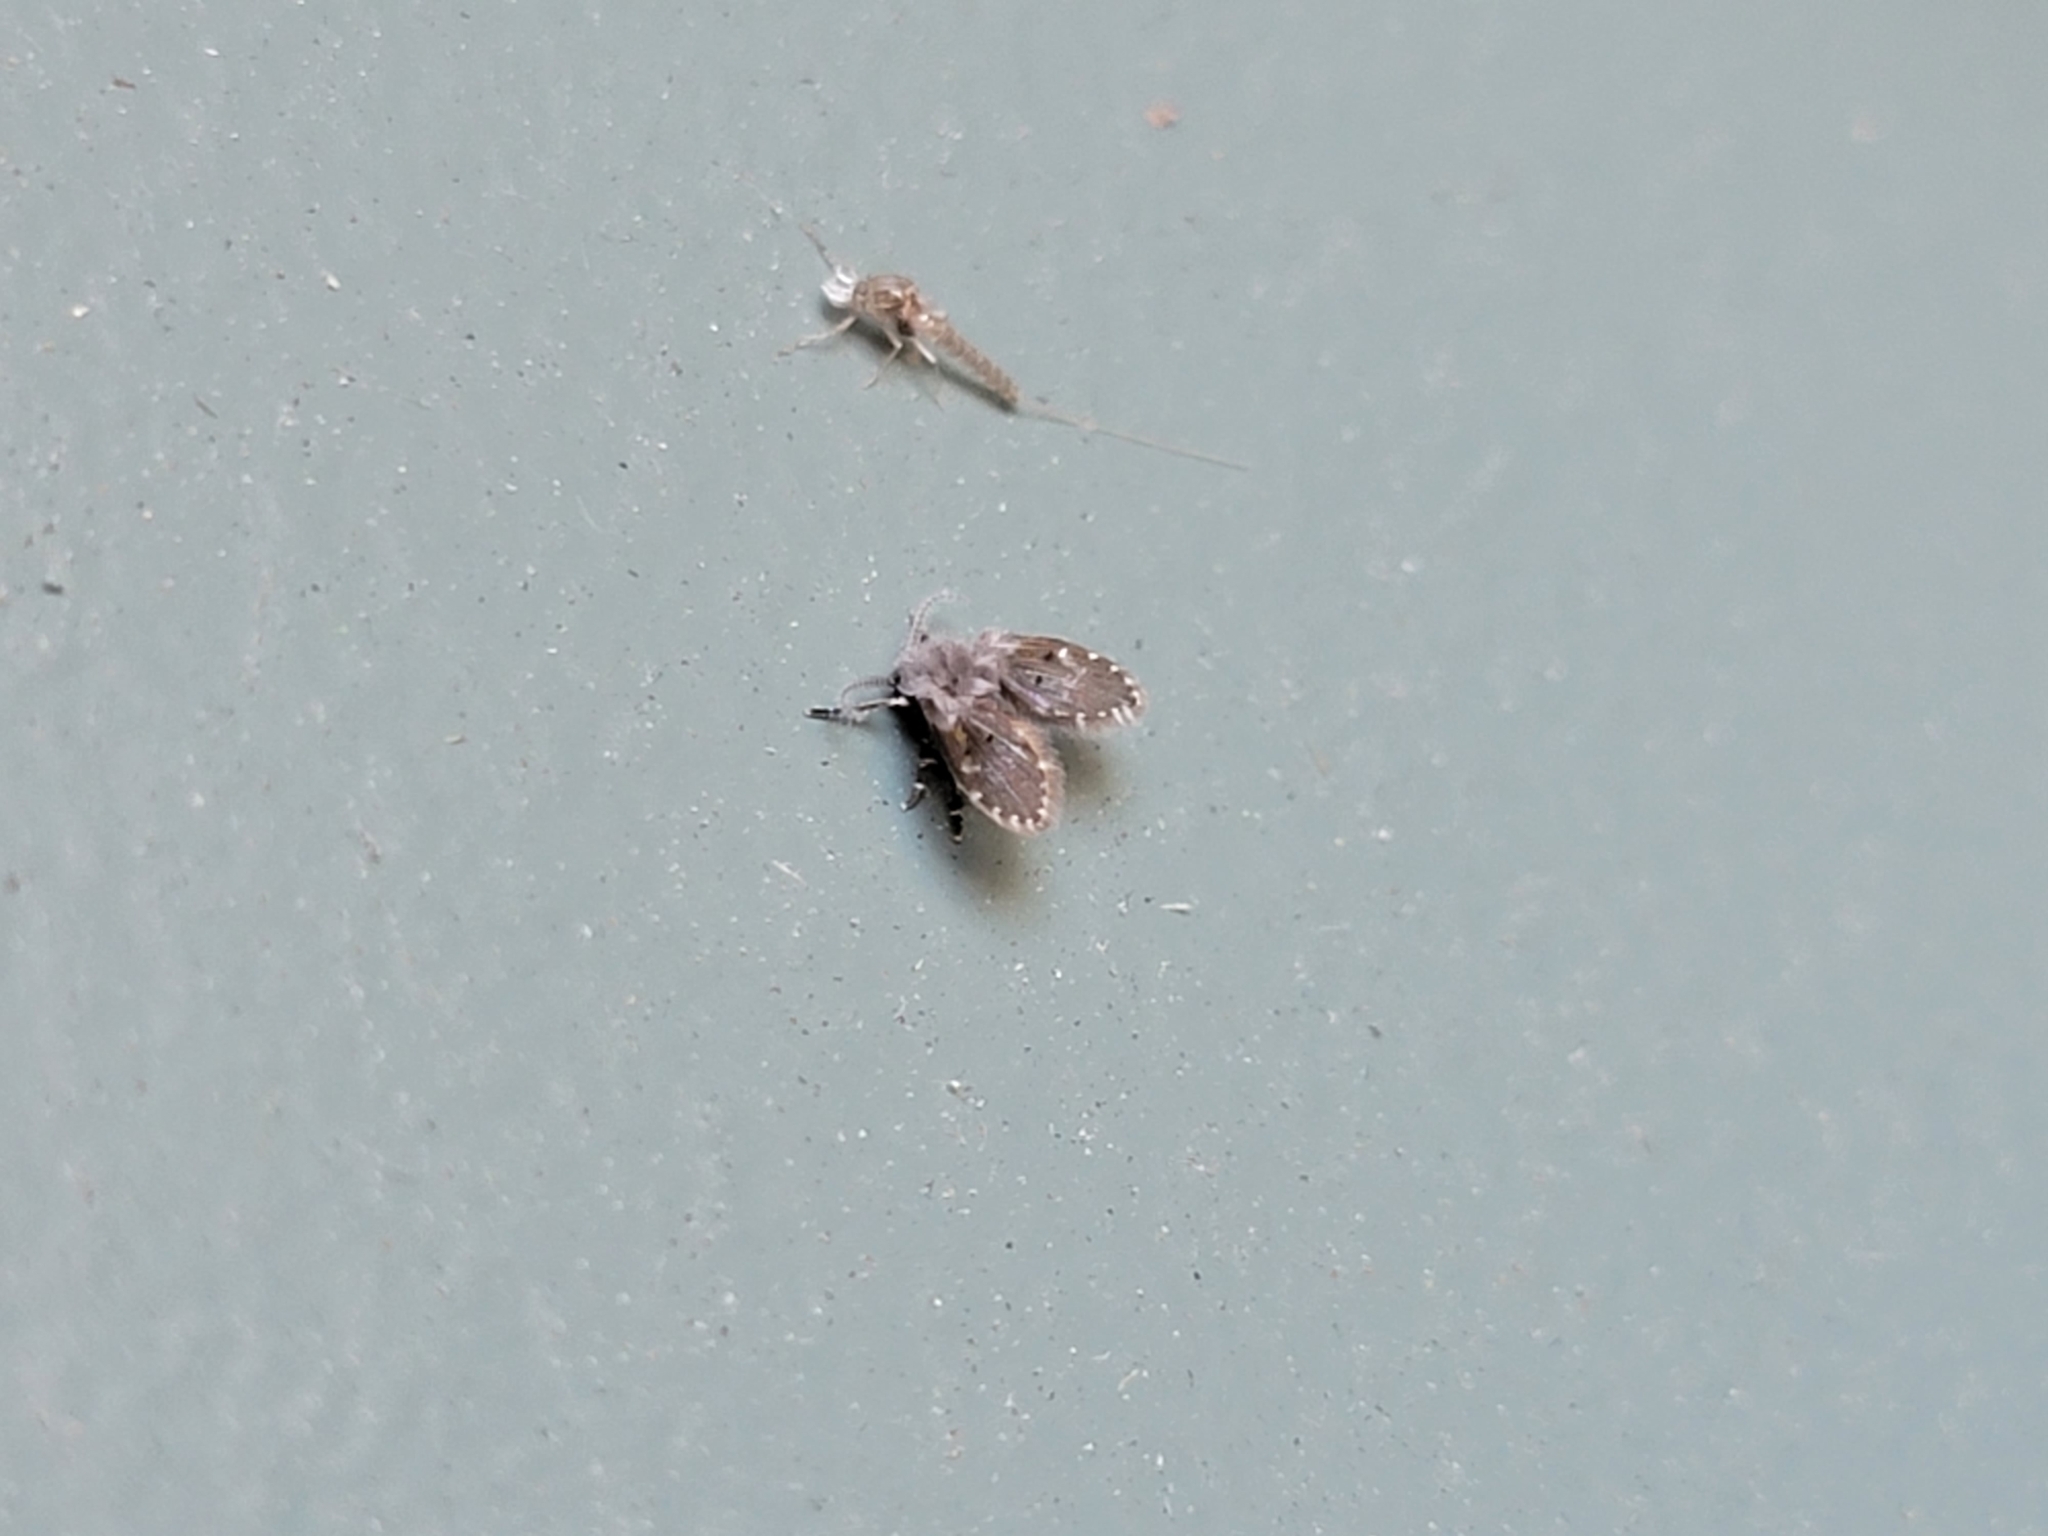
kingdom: Animalia
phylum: Arthropoda
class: Insecta
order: Diptera
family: Psychodidae
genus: Clogmia
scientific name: Clogmia albipunctatus
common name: White-spotted moth fly
